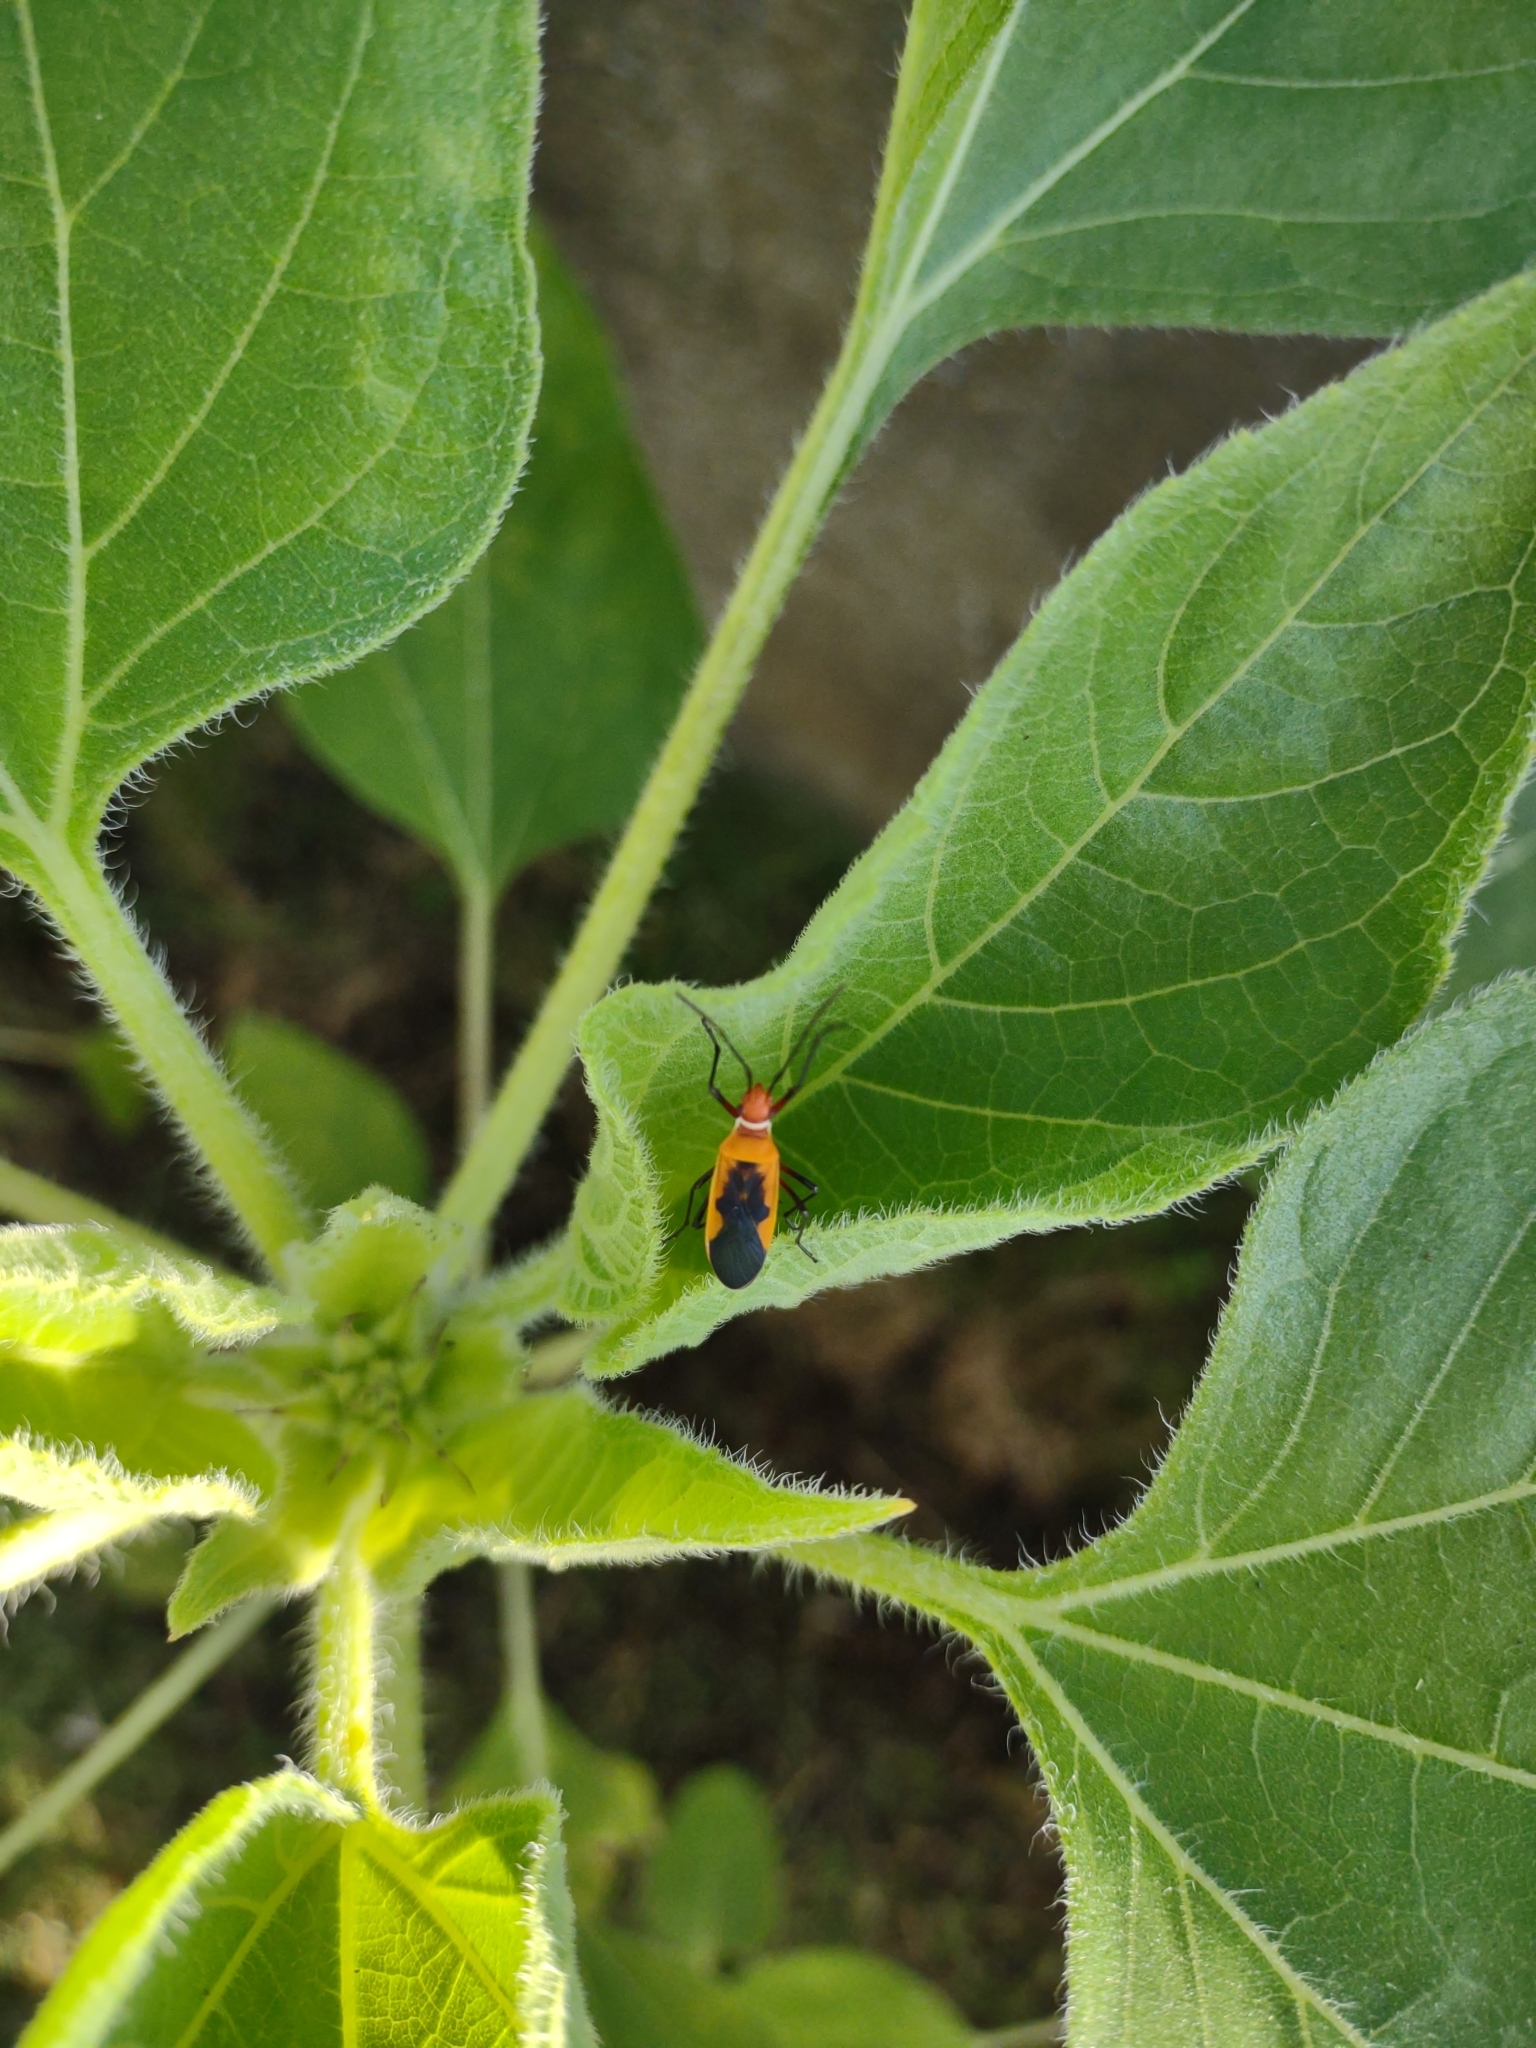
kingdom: Animalia
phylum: Arthropoda
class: Insecta
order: Hemiptera
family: Pyrrhocoridae
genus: Dysdercus
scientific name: Dysdercus poecilus
